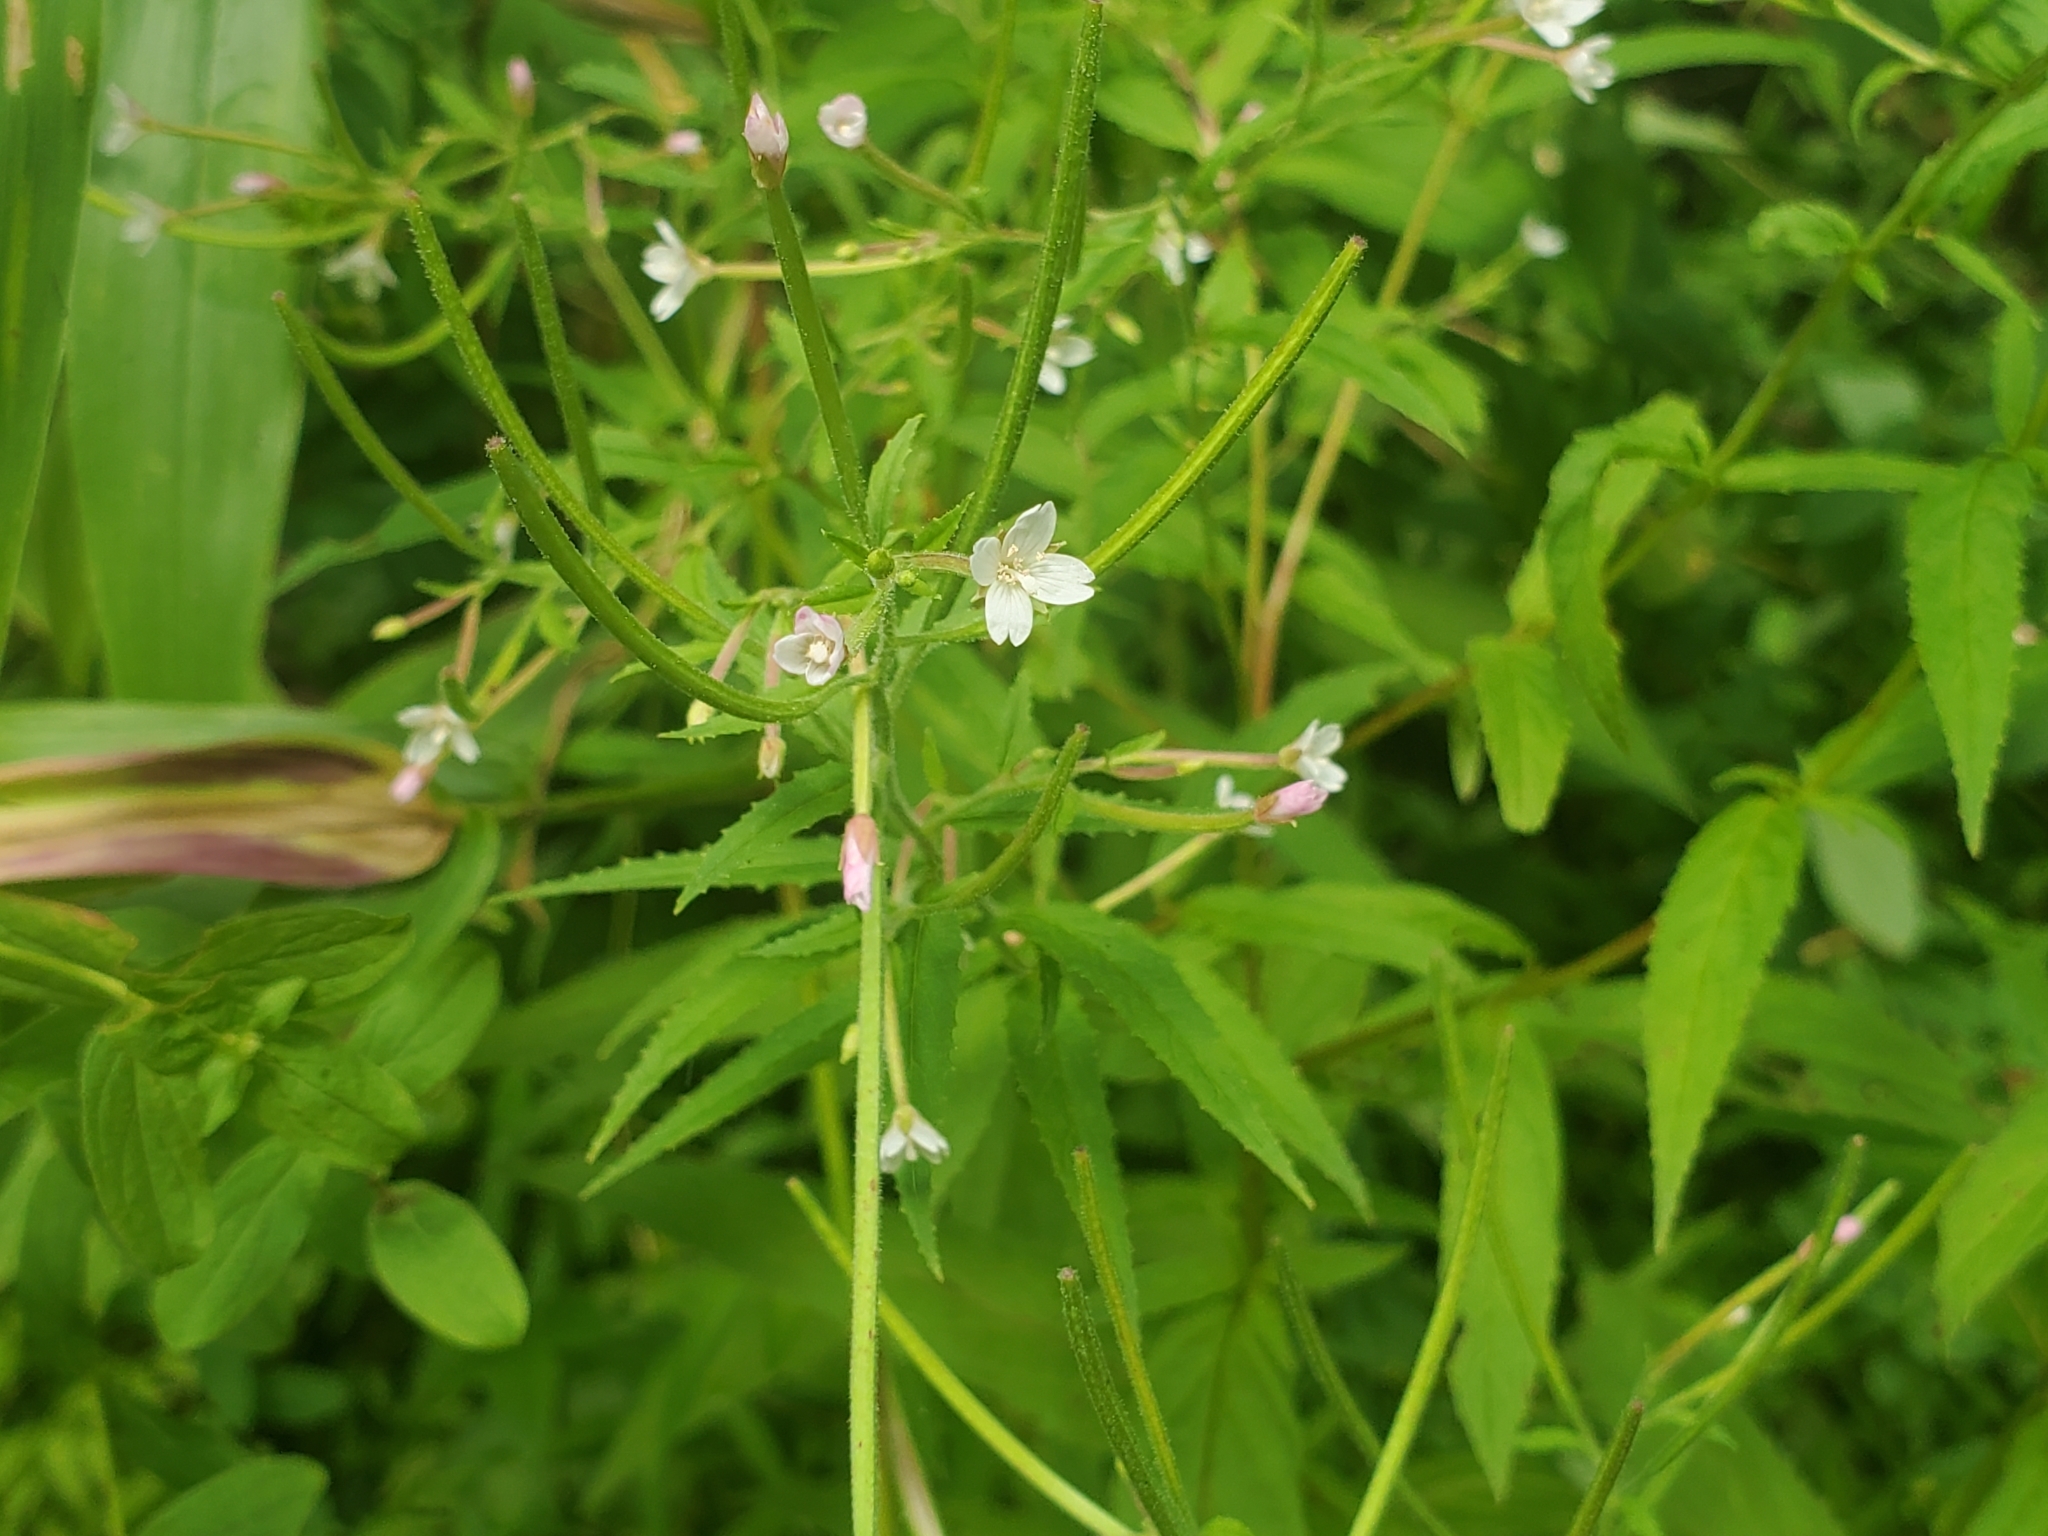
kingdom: Plantae
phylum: Tracheophyta
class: Magnoliopsida
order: Myrtales
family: Onagraceae
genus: Epilobium
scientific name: Epilobium coloratum
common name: Bronze willowherb
